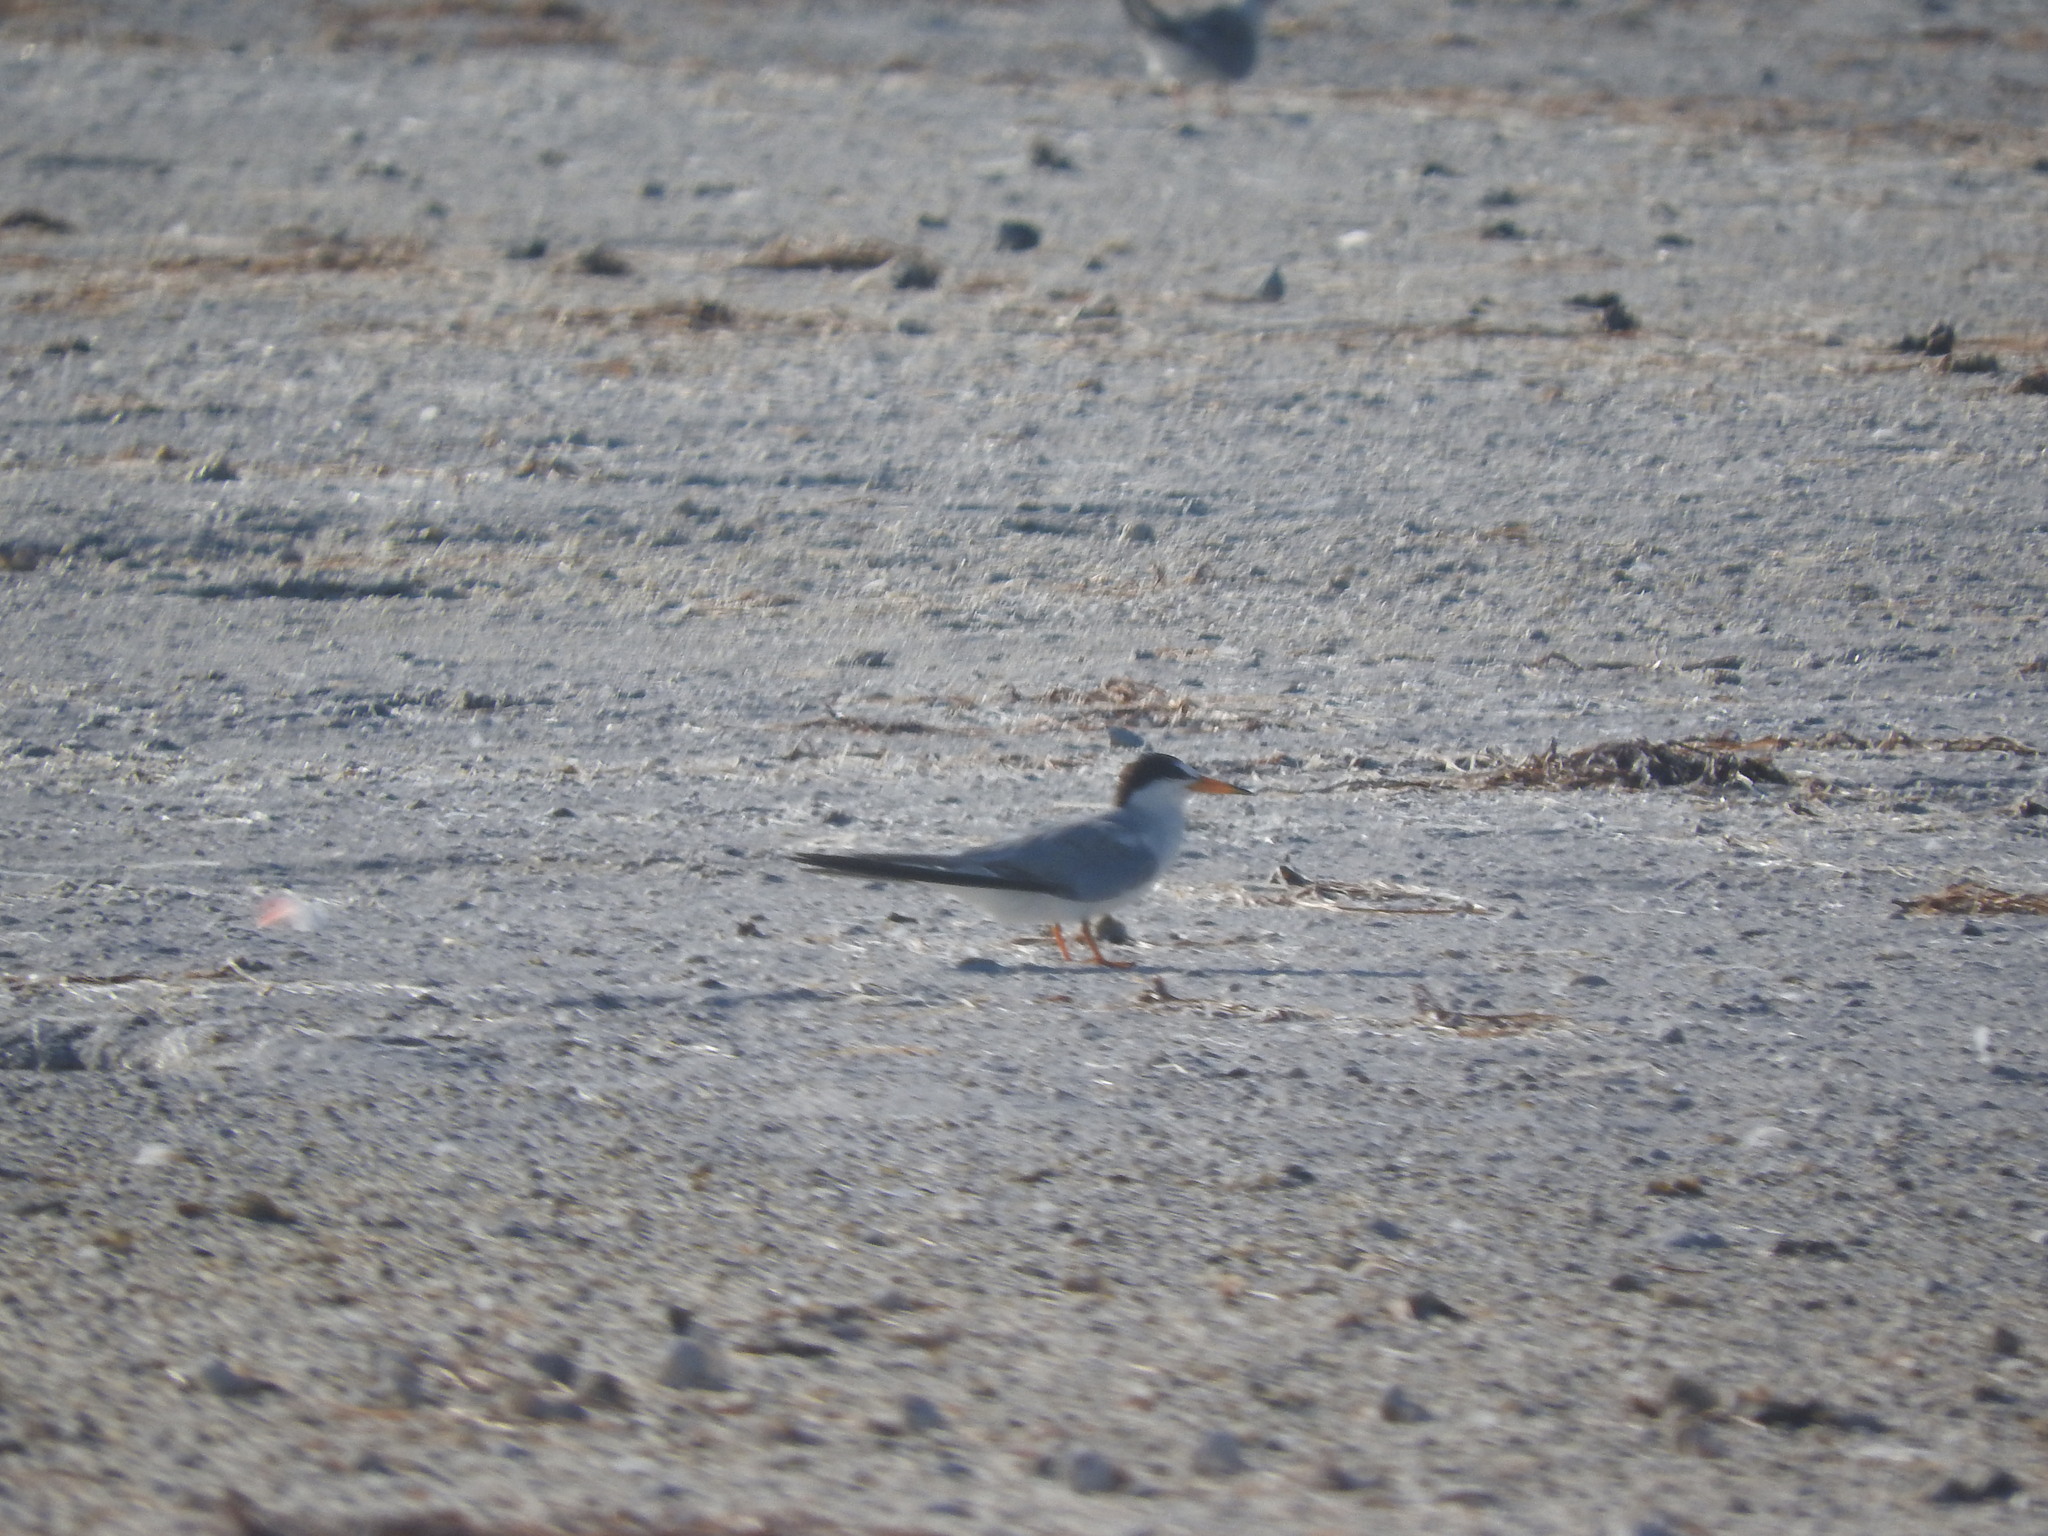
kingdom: Animalia
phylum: Chordata
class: Aves
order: Charadriiformes
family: Laridae
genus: Sternula
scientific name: Sternula antillarum
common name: Least tern
